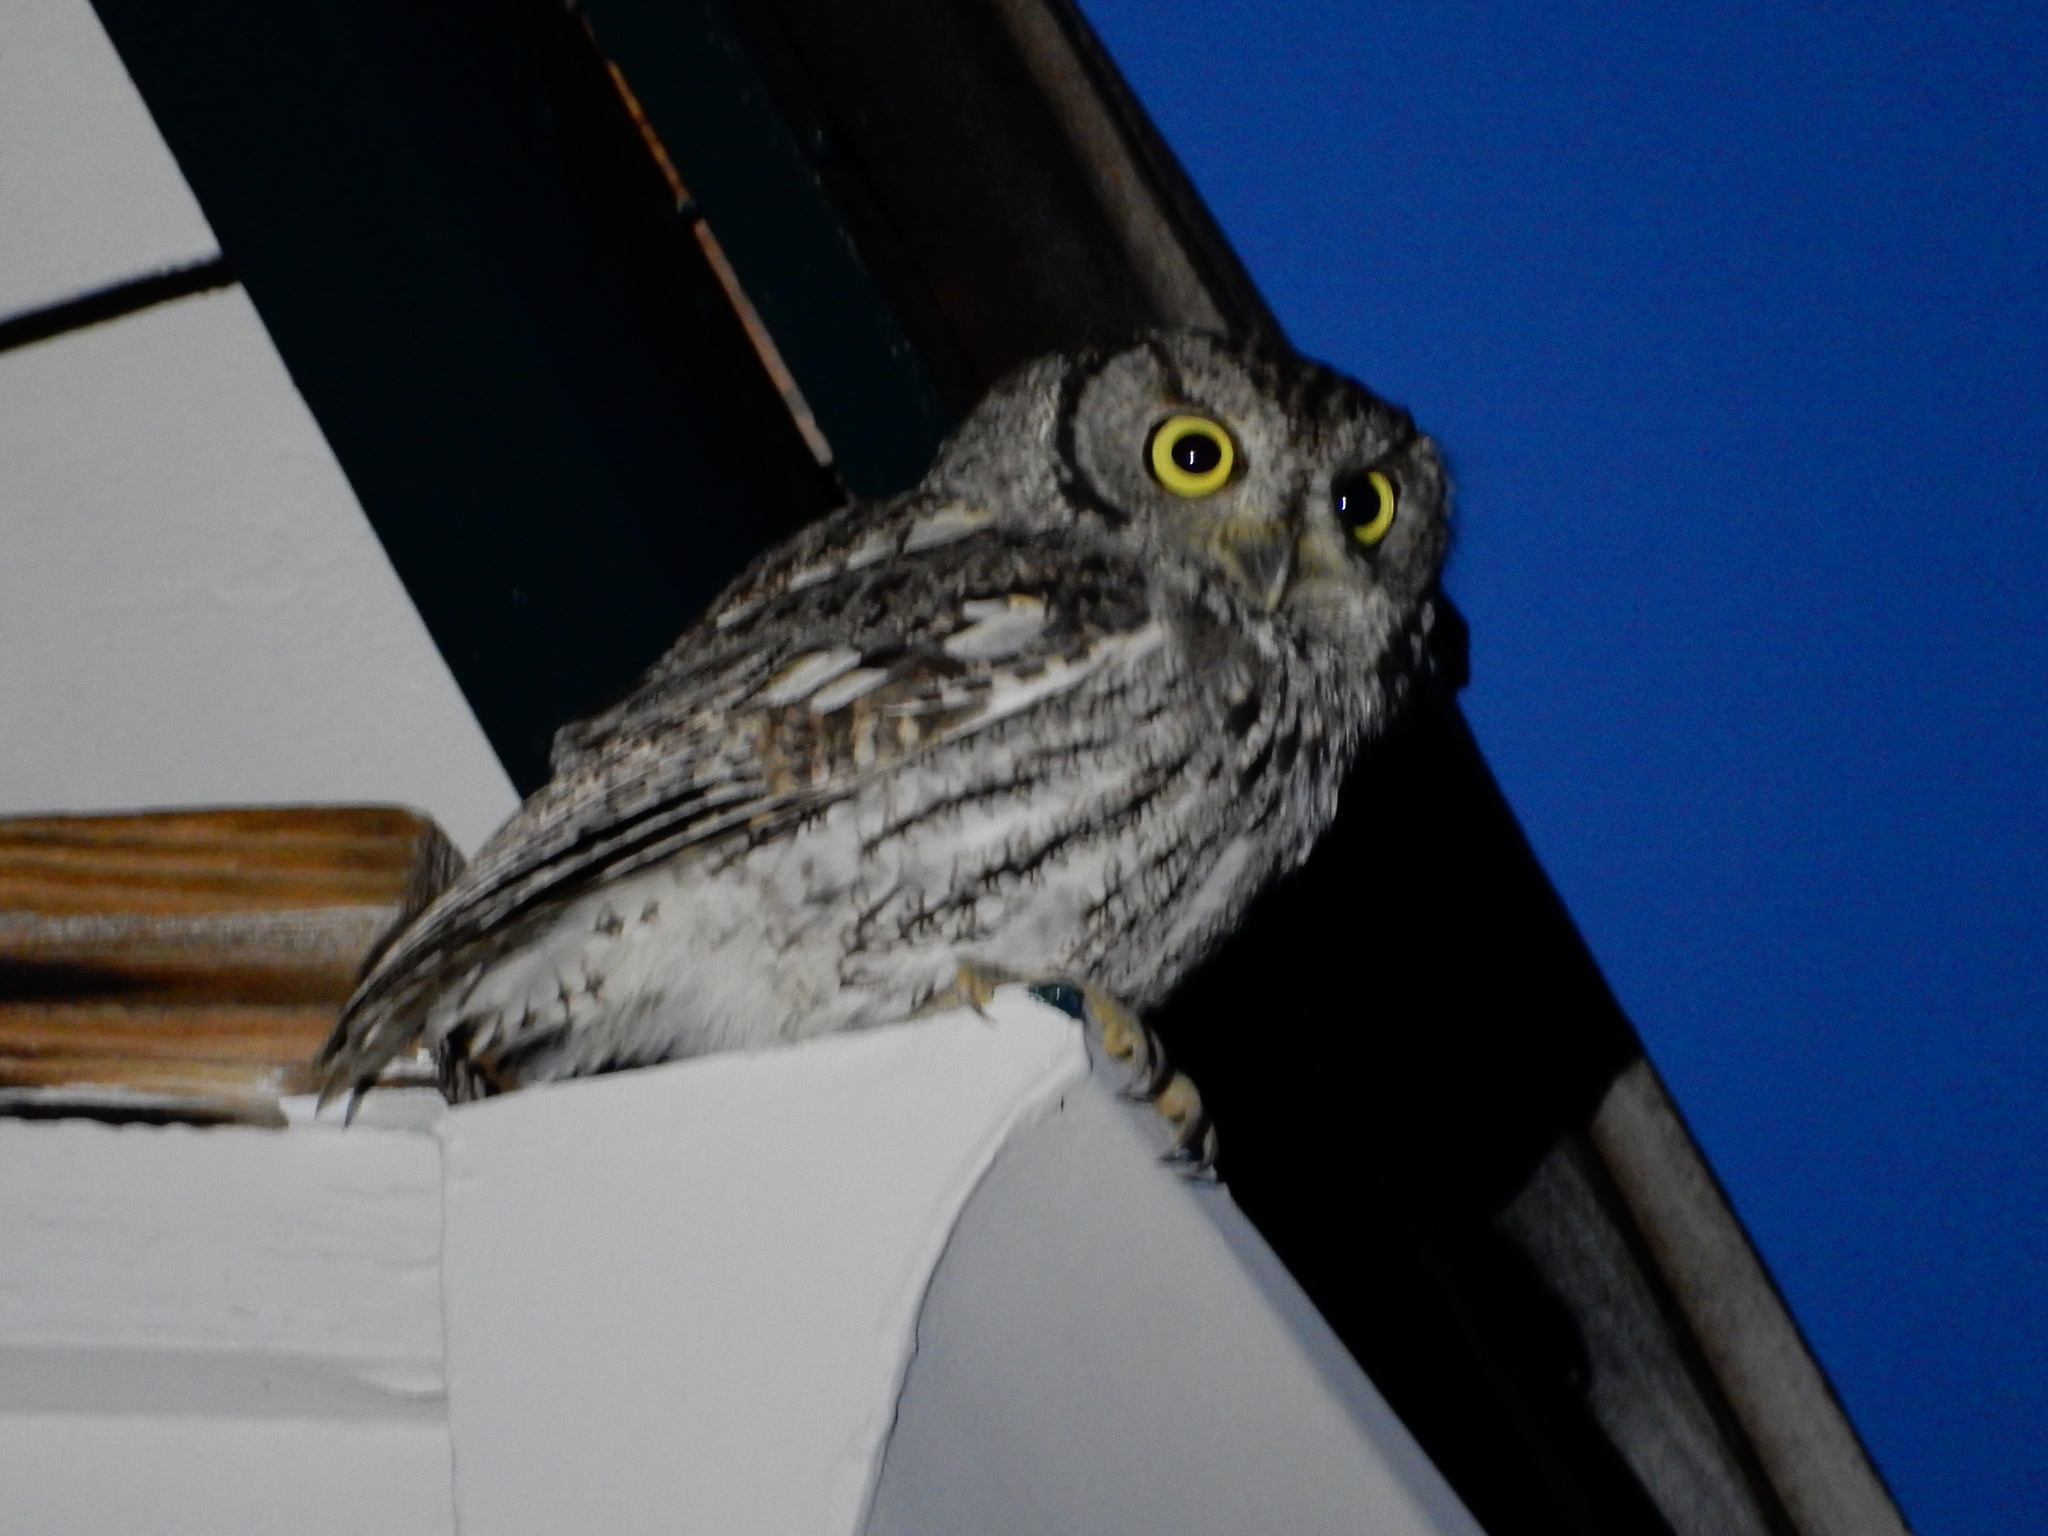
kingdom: Animalia
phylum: Chordata
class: Aves
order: Strigiformes
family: Strigidae
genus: Megascops
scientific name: Megascops kennicottii
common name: Western screech-owl
